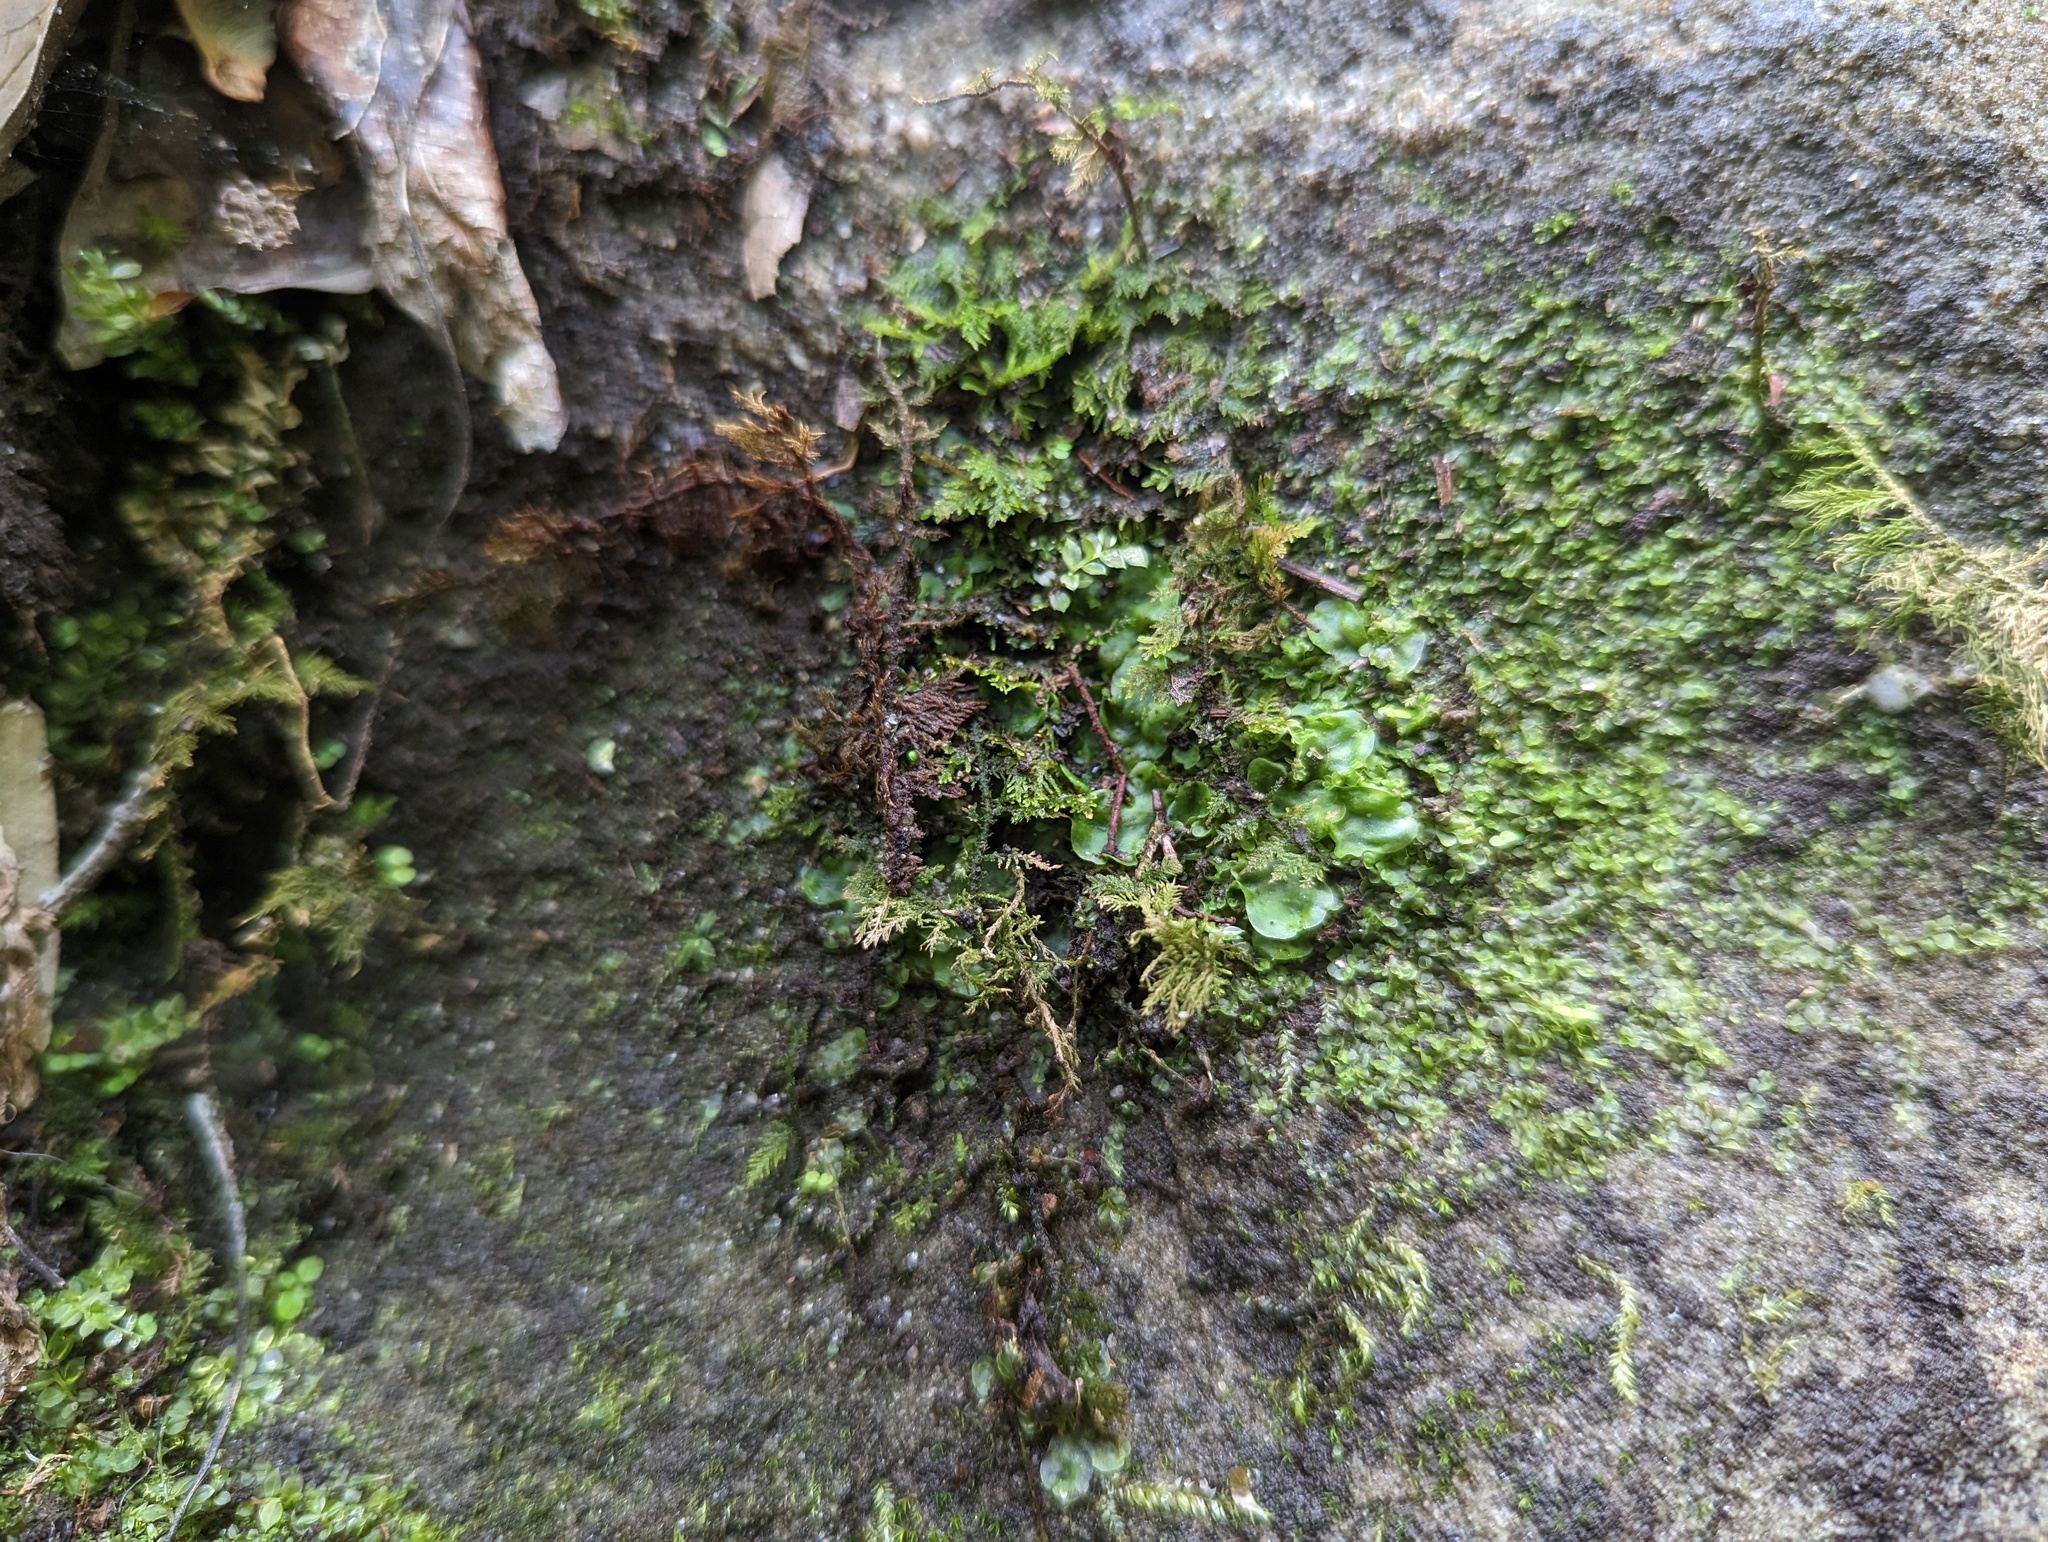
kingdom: Plantae
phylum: Marchantiophyta
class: Jungermanniopsida
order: Pelliales
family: Pelliaceae
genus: Pellia
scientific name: Pellia epiphylla
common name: Common pellia
